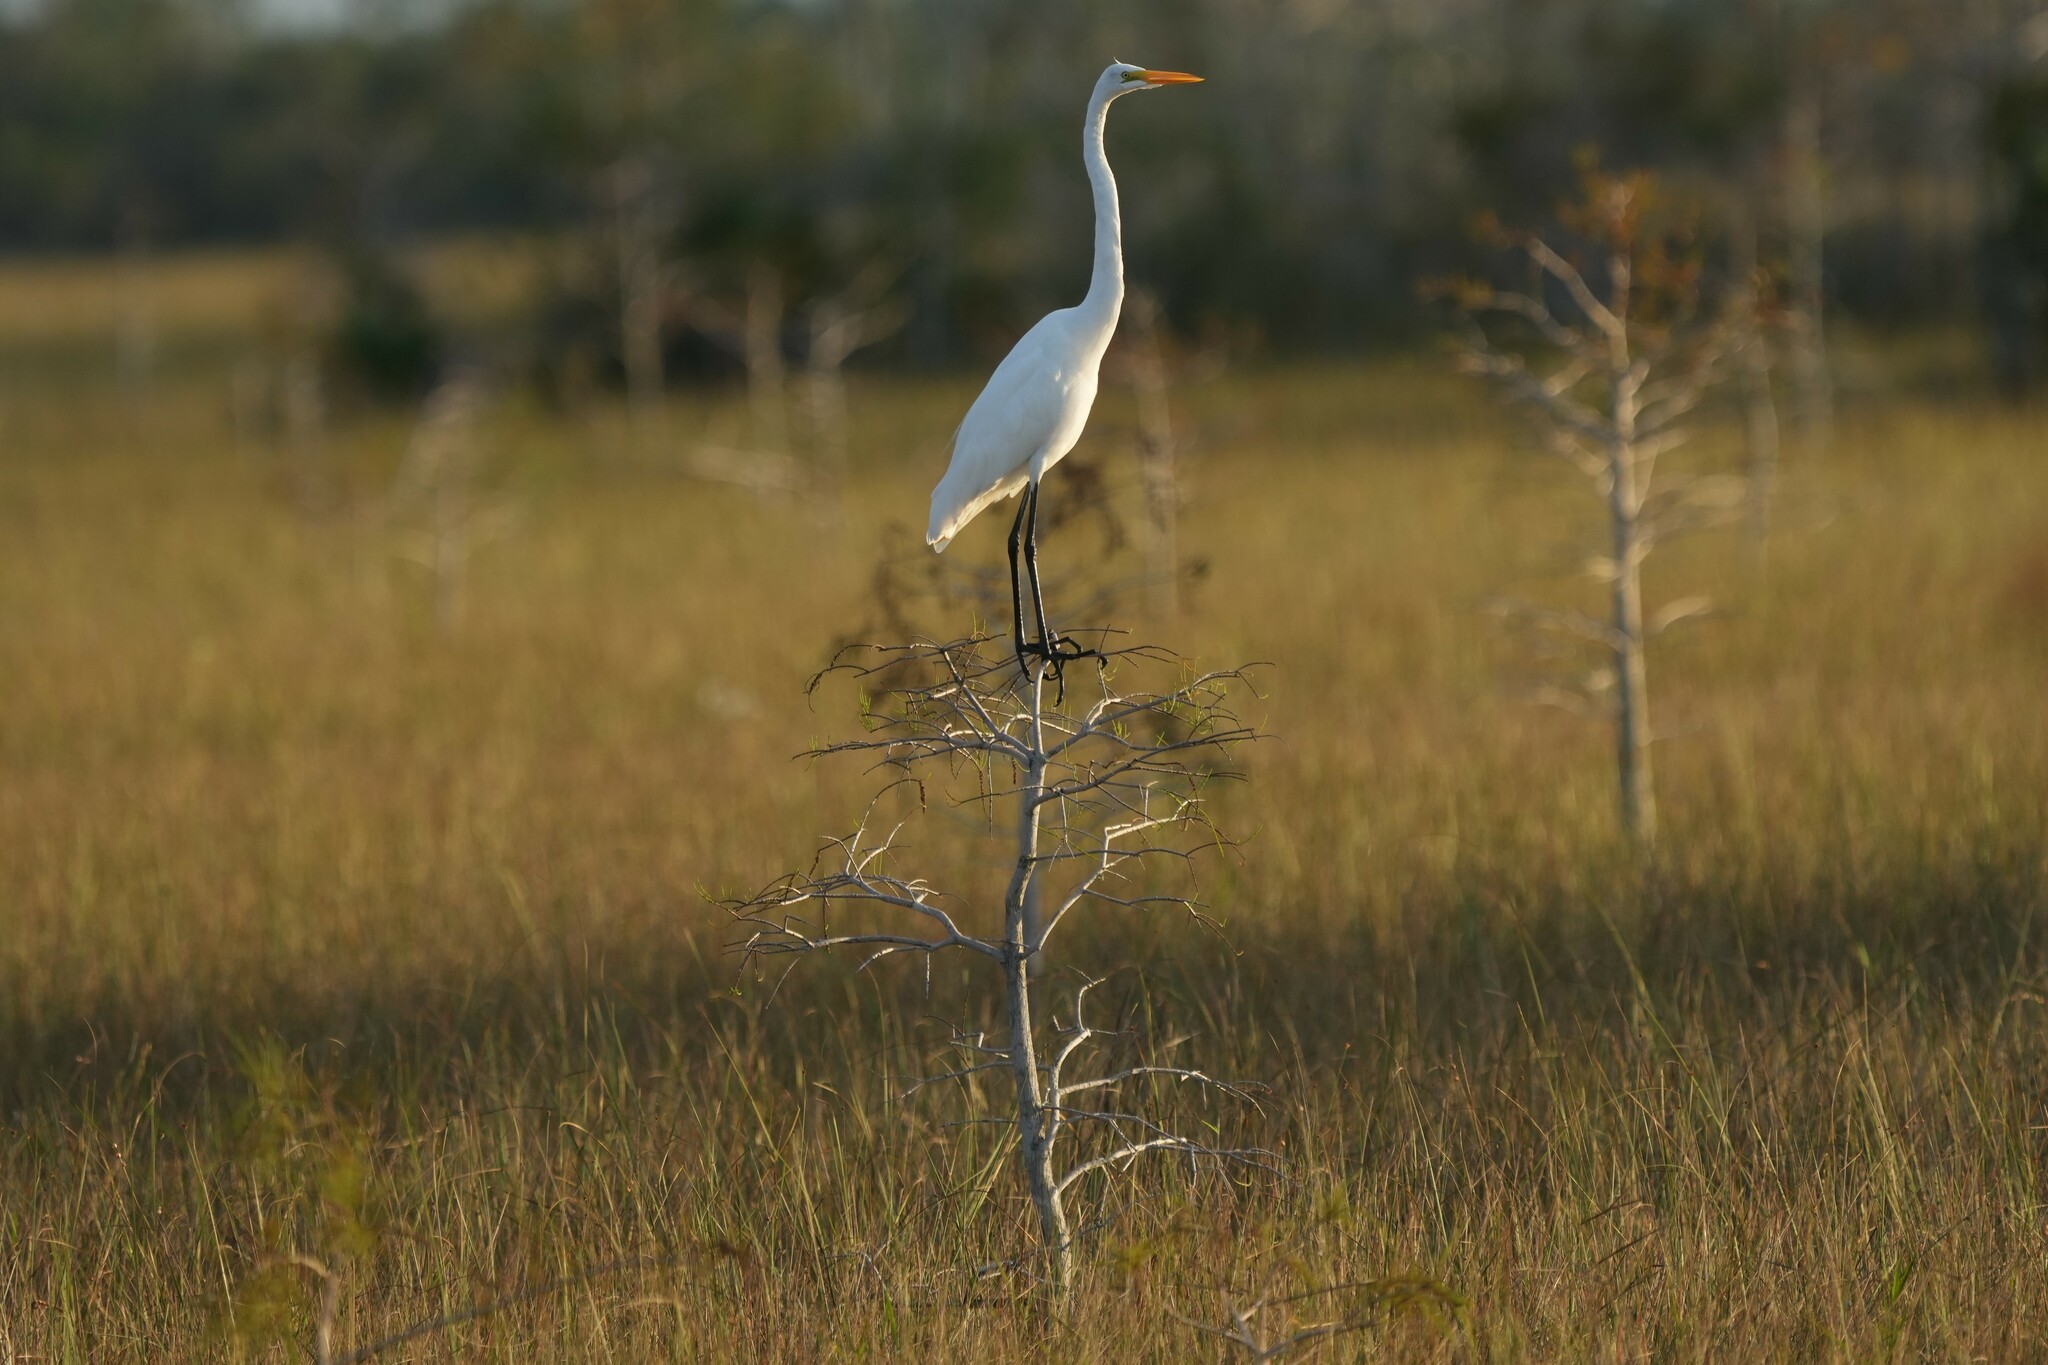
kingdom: Animalia
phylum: Chordata
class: Aves
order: Pelecaniformes
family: Ardeidae
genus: Ardea
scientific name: Ardea alba
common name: Great egret
